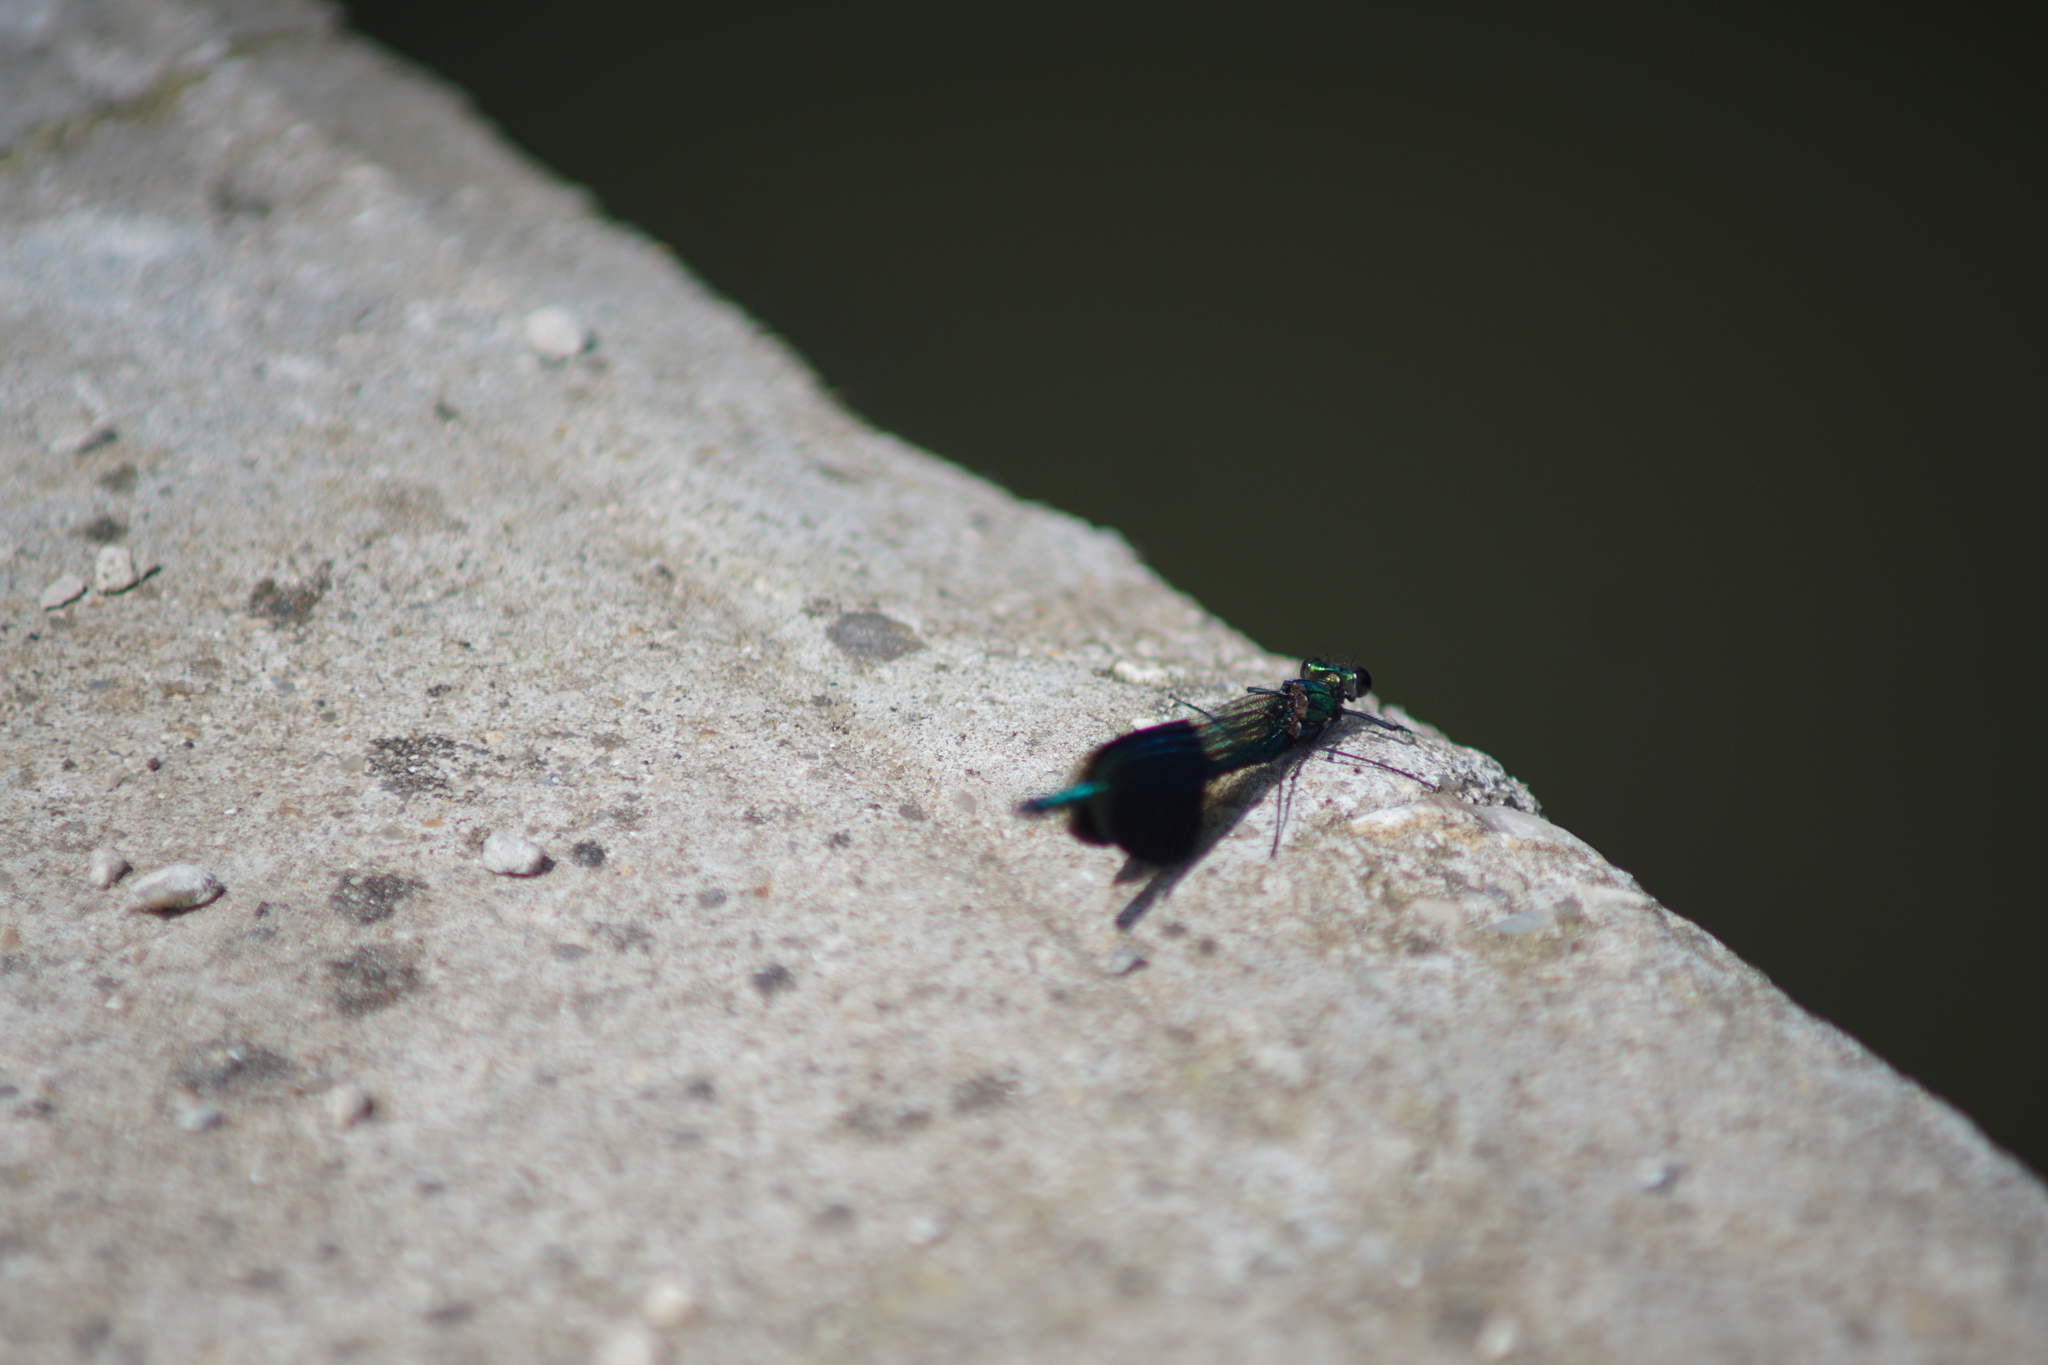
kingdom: Animalia
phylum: Arthropoda
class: Insecta
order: Odonata
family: Calopterygidae
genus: Calopteryx
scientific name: Calopteryx splendens
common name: Banded demoiselle
